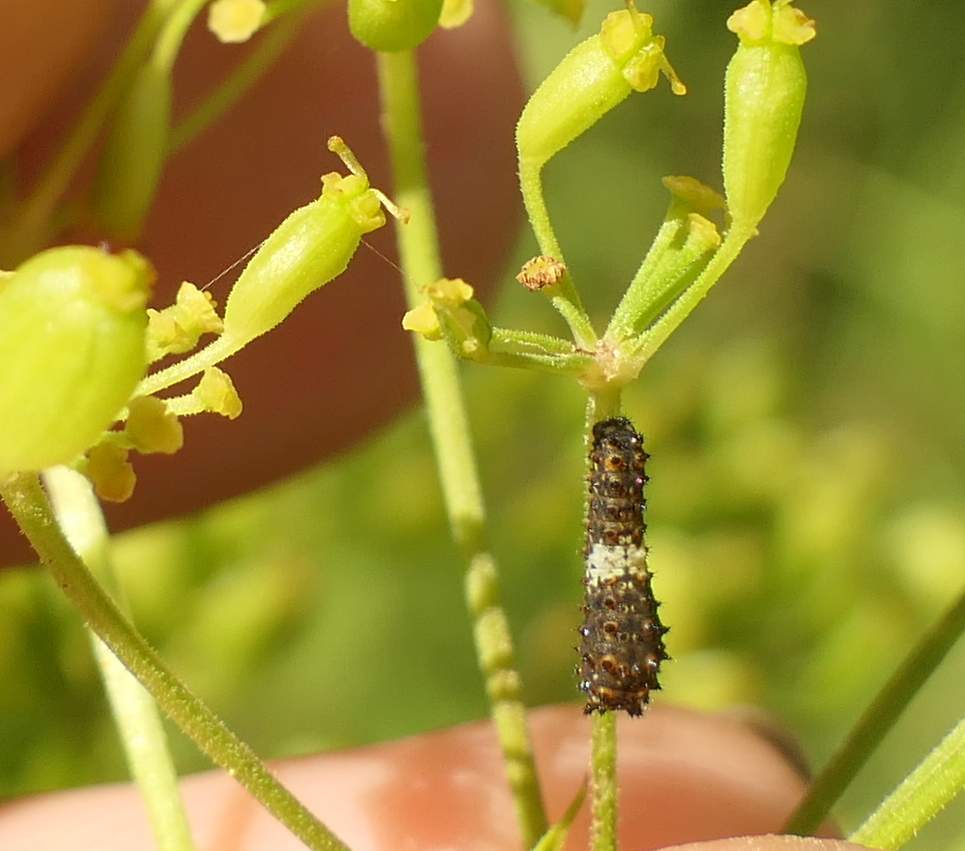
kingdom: Animalia
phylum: Arthropoda
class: Insecta
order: Lepidoptera
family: Papilionidae
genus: Papilio
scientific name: Papilio polyxenes
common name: Black swallowtail
